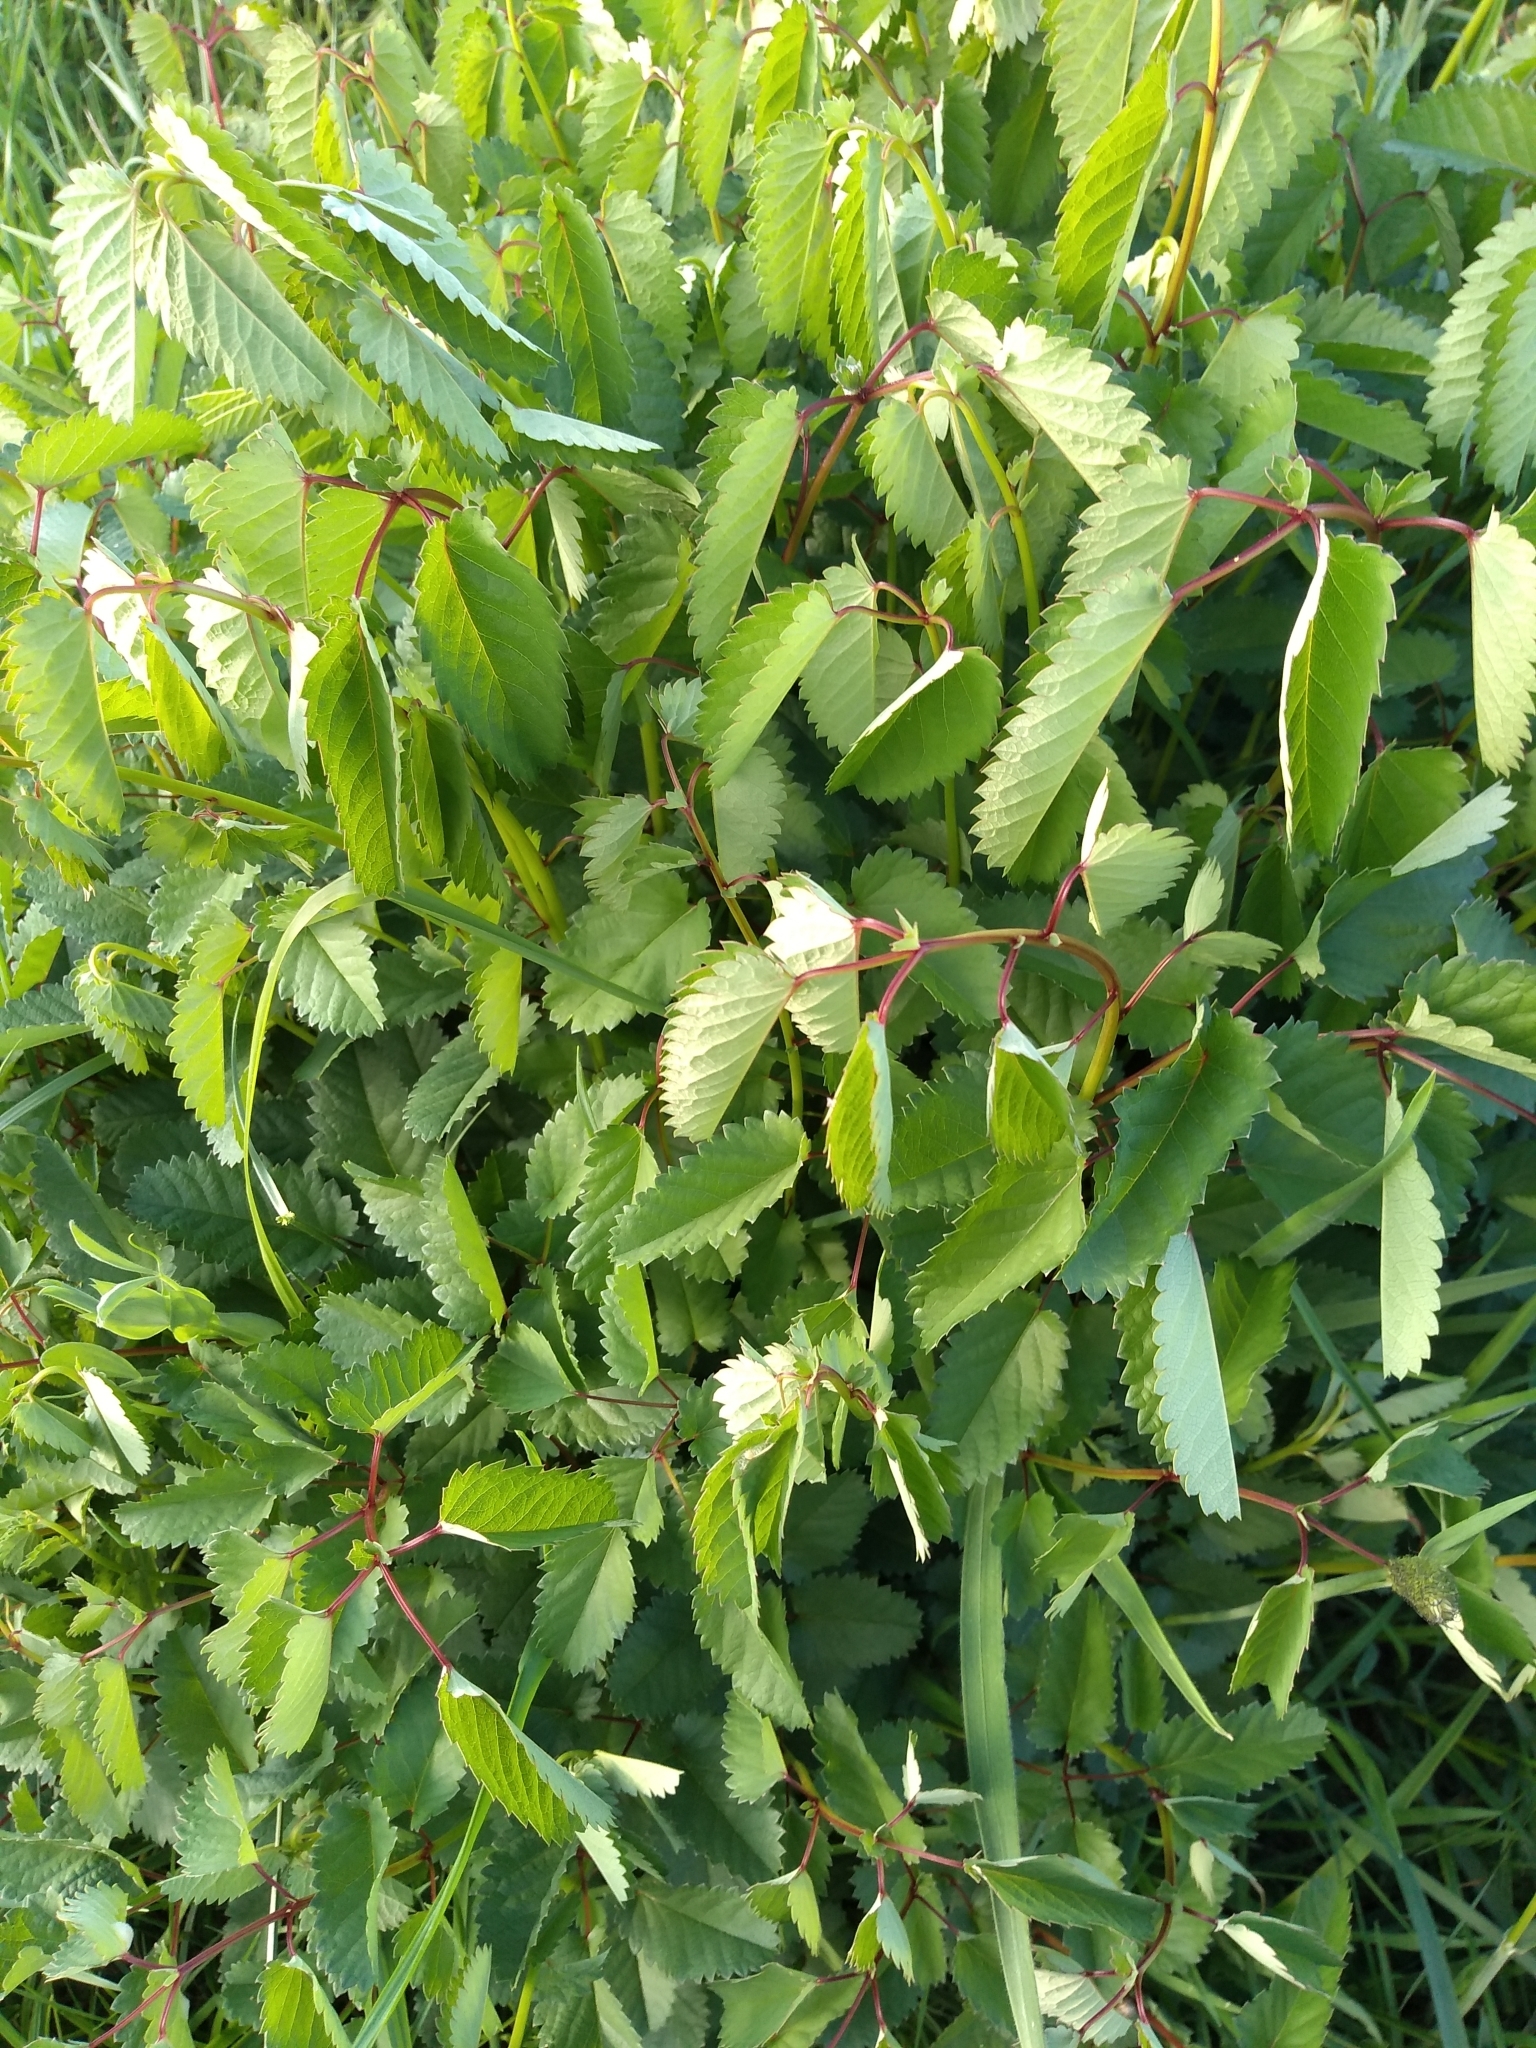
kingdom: Plantae
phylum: Tracheophyta
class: Magnoliopsida
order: Rosales
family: Rosaceae
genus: Sanguisorba
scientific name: Sanguisorba officinalis
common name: Great burnet
